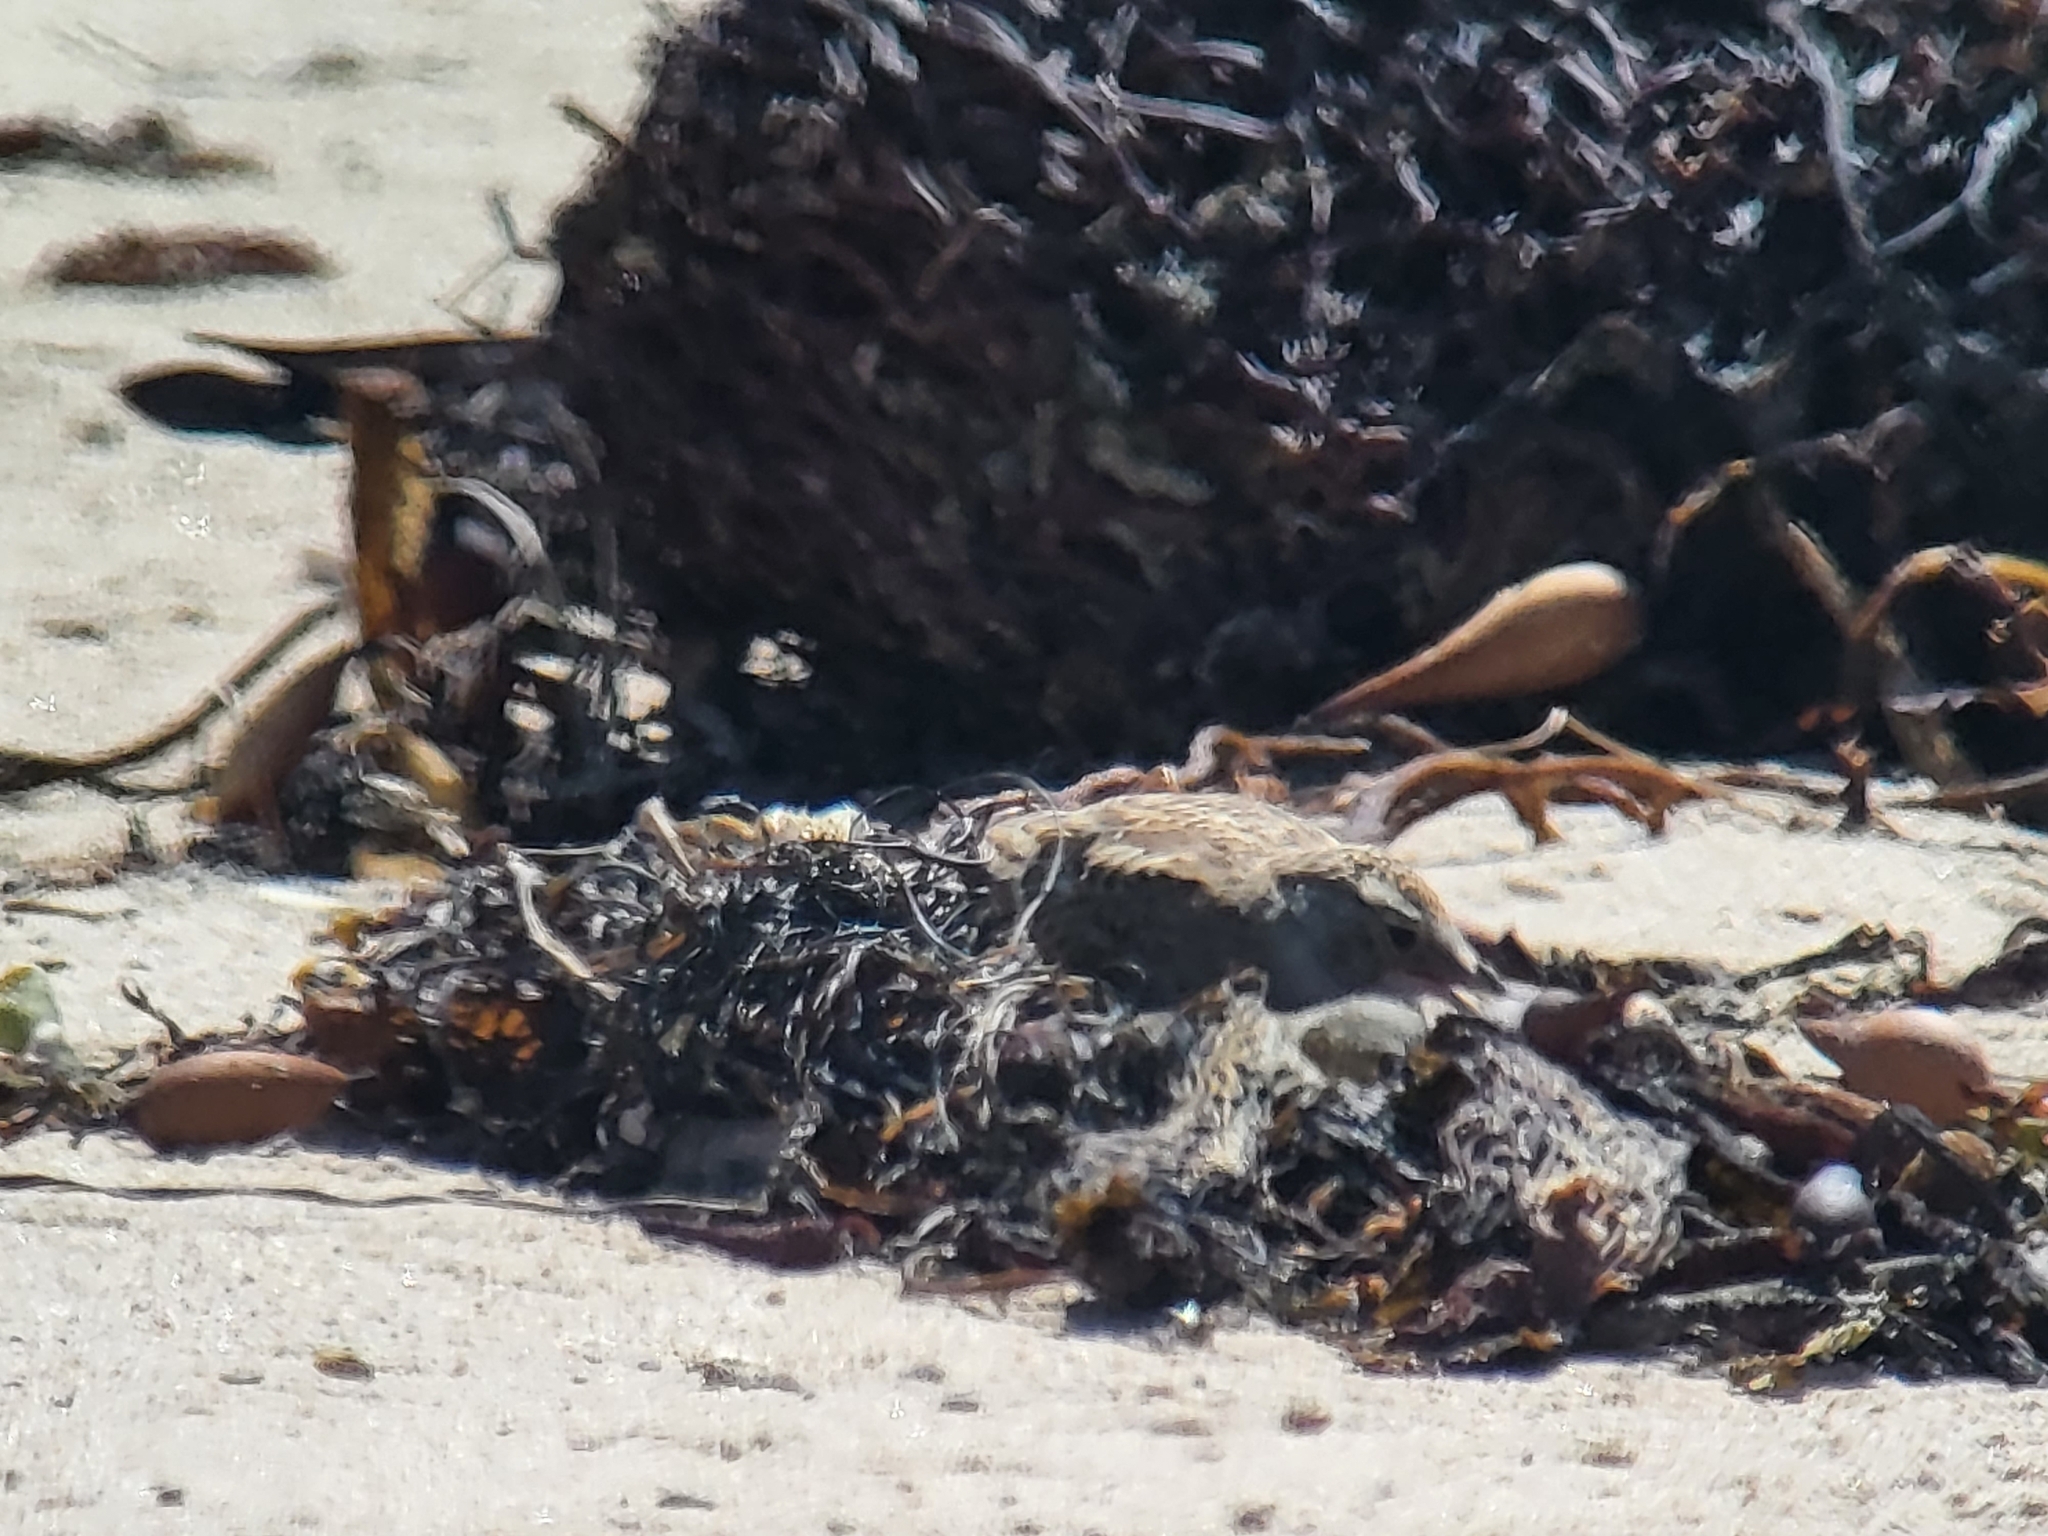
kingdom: Animalia
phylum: Chordata
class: Aves
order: Passeriformes
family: Alaudidae
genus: Eremophila
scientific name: Eremophila alpestris
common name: Horned lark
